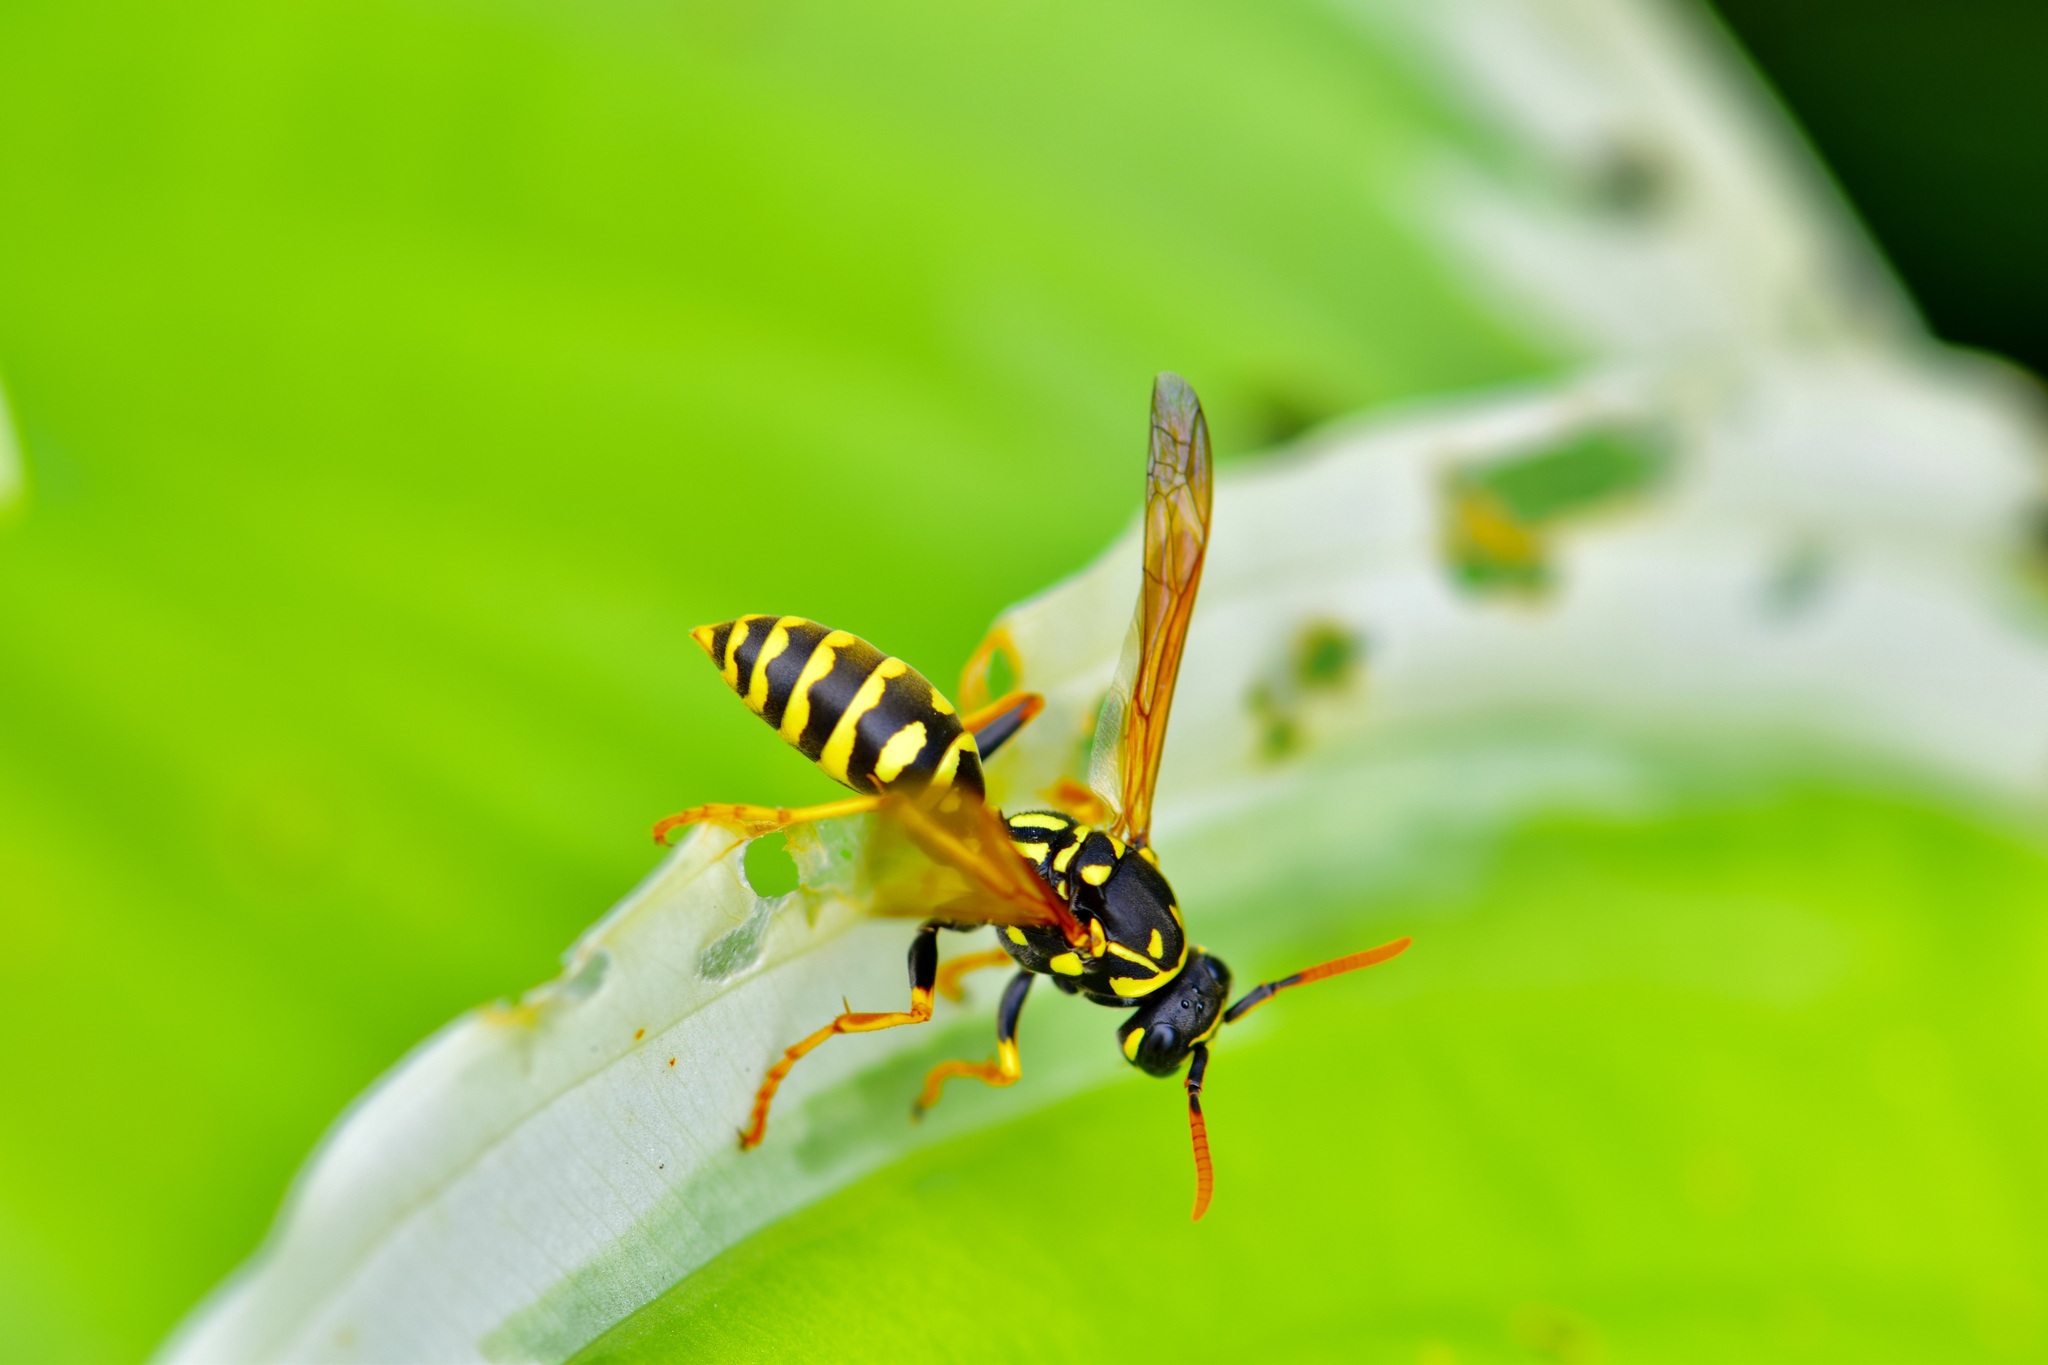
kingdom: Animalia
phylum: Arthropoda
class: Insecta
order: Hymenoptera
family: Eumenidae
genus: Polistes
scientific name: Polistes dominula
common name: Paper wasp
